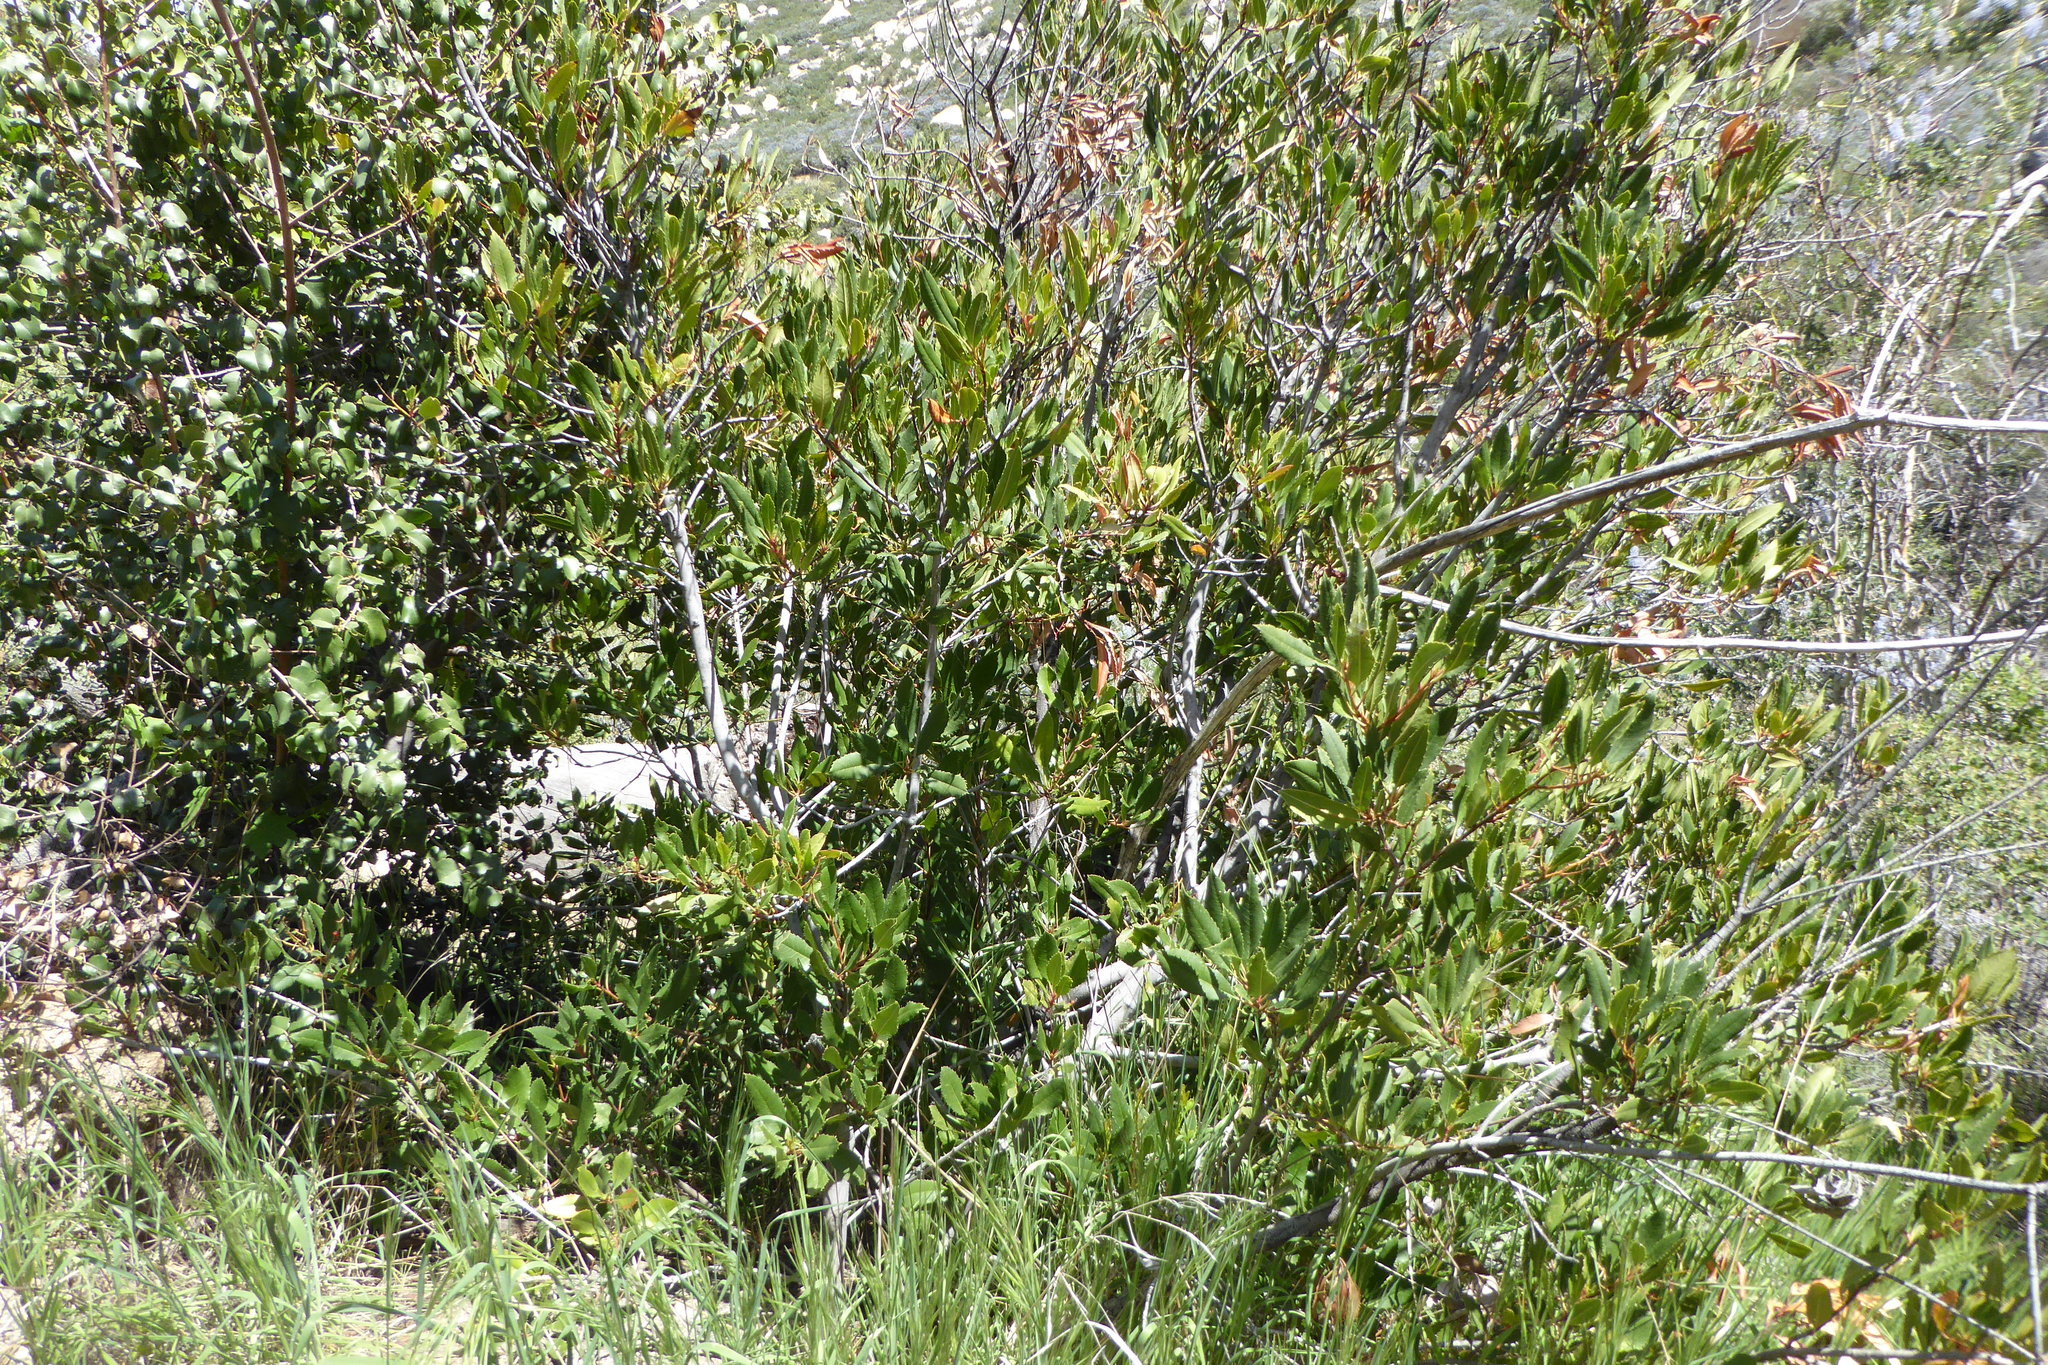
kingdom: Plantae
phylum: Tracheophyta
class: Magnoliopsida
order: Rosales
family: Rosaceae
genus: Heteromeles
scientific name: Heteromeles arbutifolia
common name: California-holly
